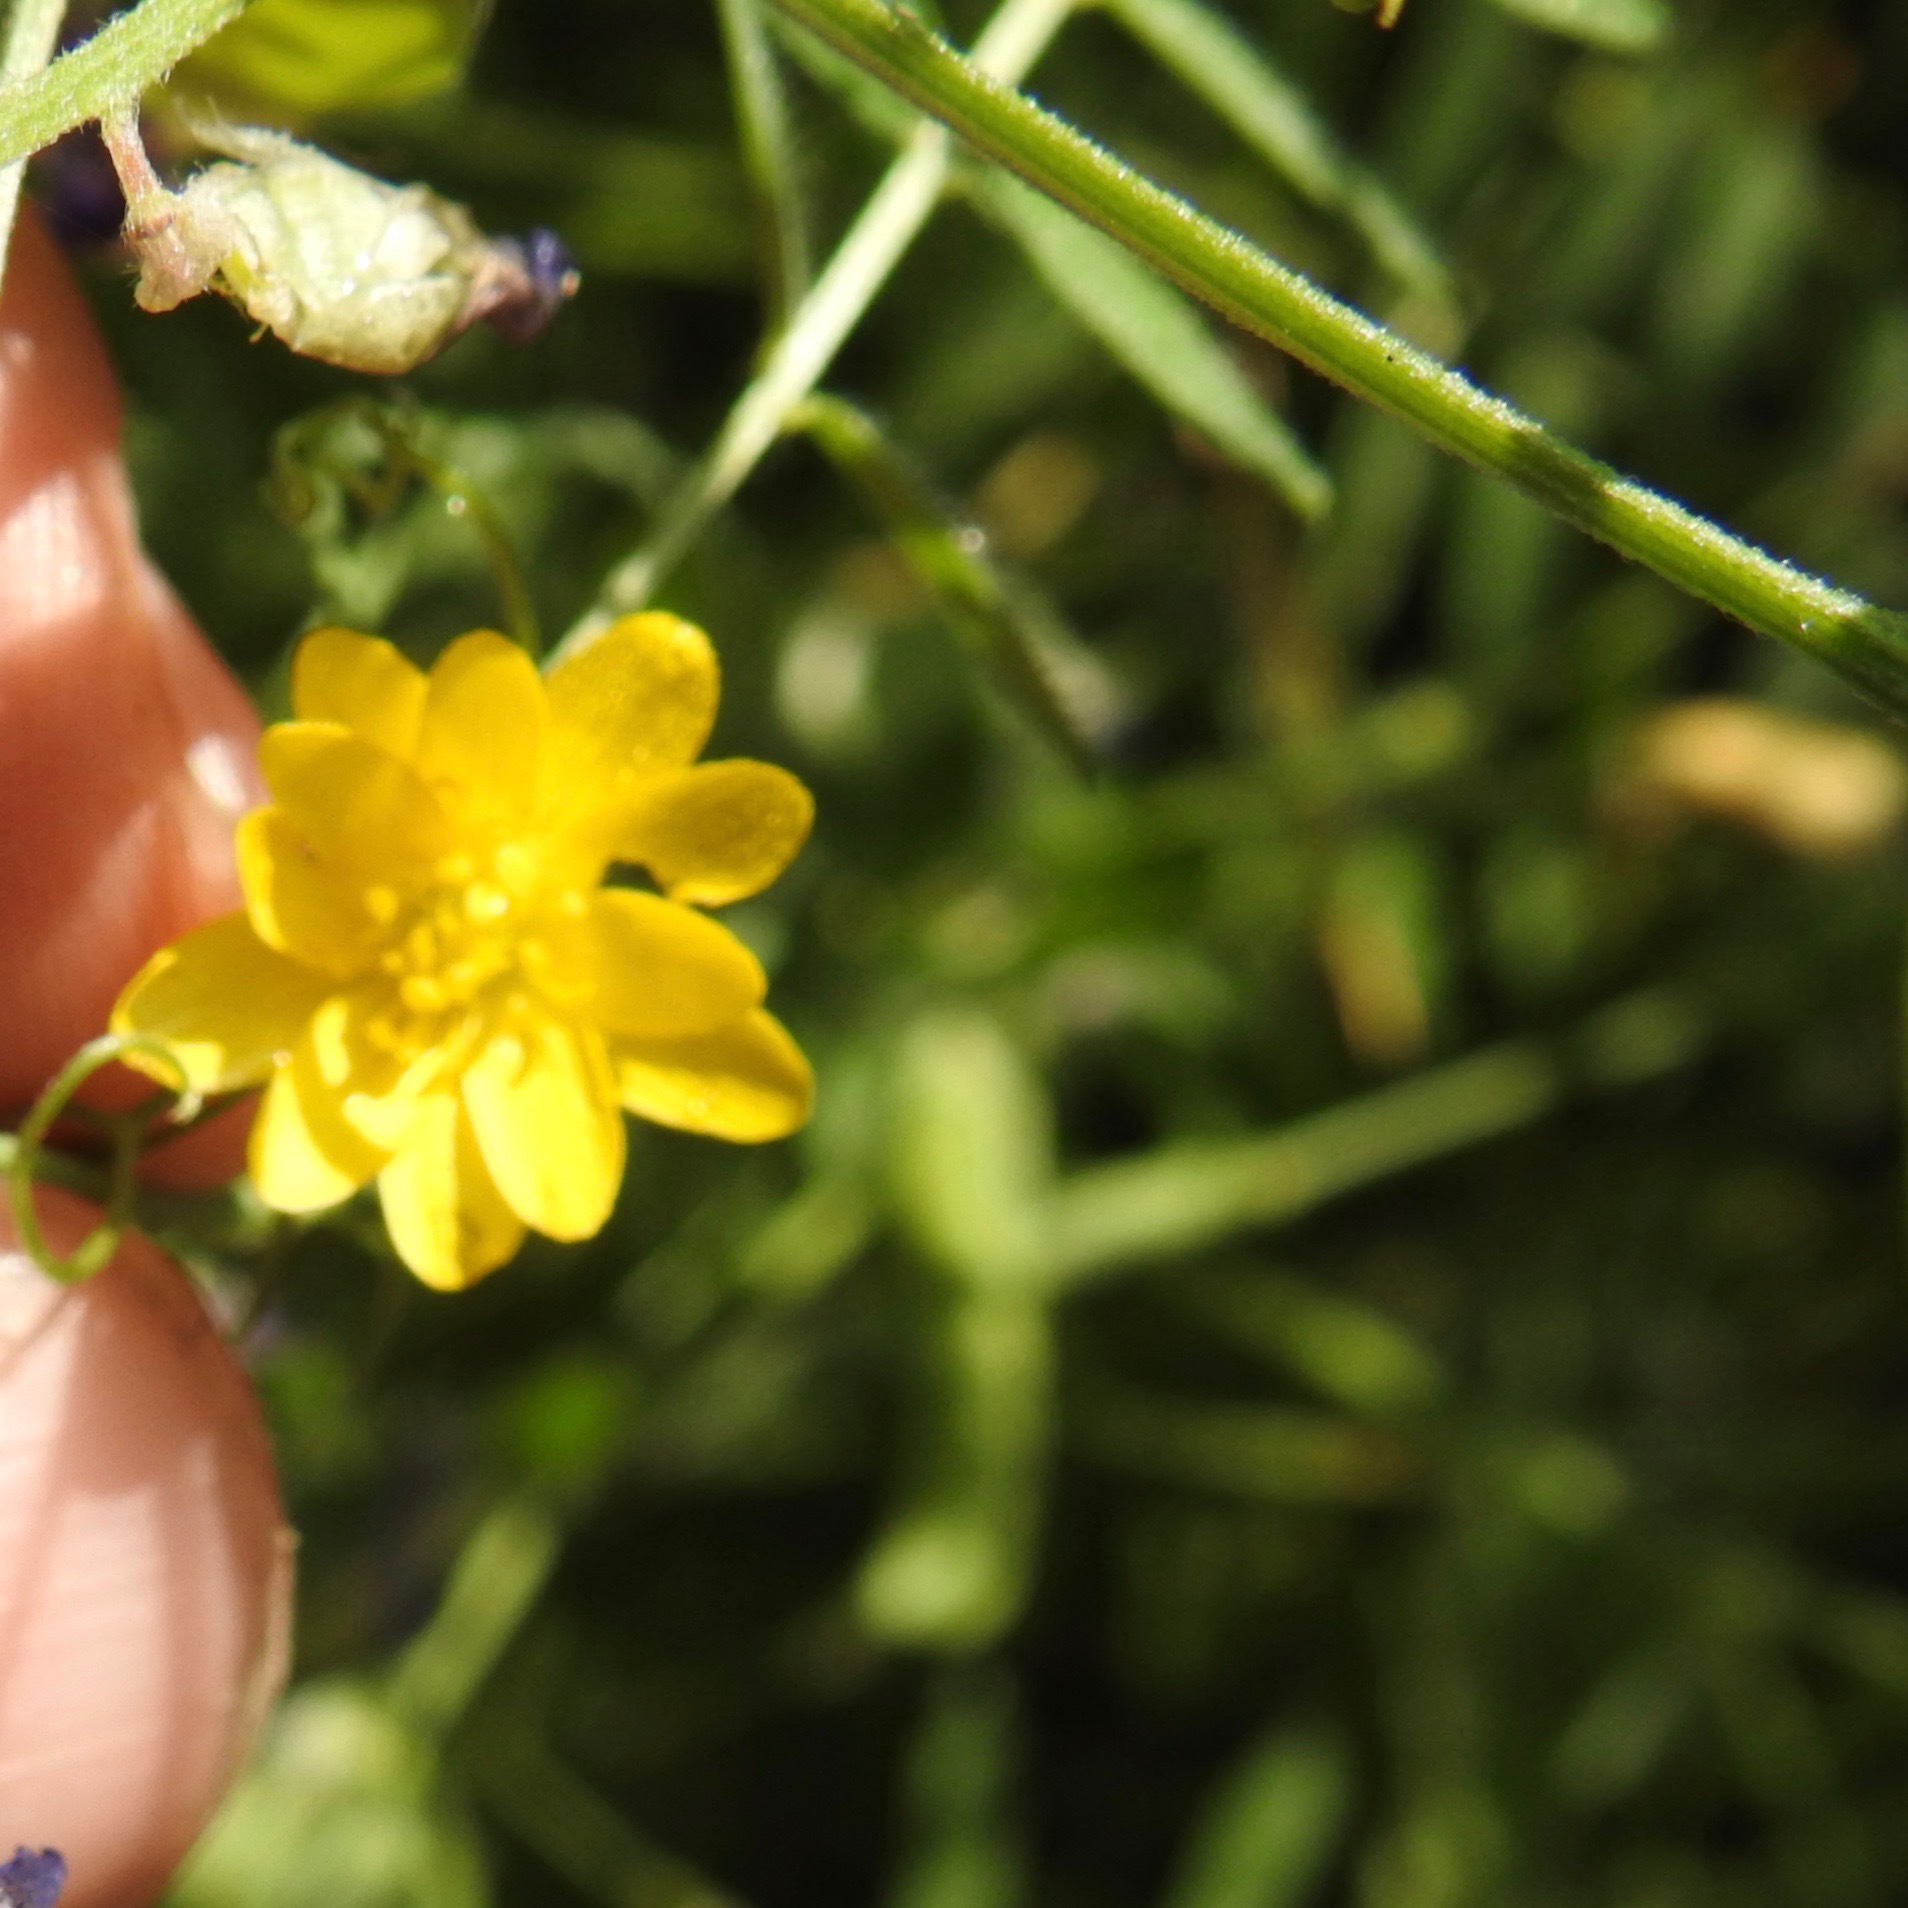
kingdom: Plantae
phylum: Tracheophyta
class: Magnoliopsida
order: Ranunculales
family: Ranunculaceae
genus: Ranunculus
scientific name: Ranunculus californicus
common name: California buttercup
